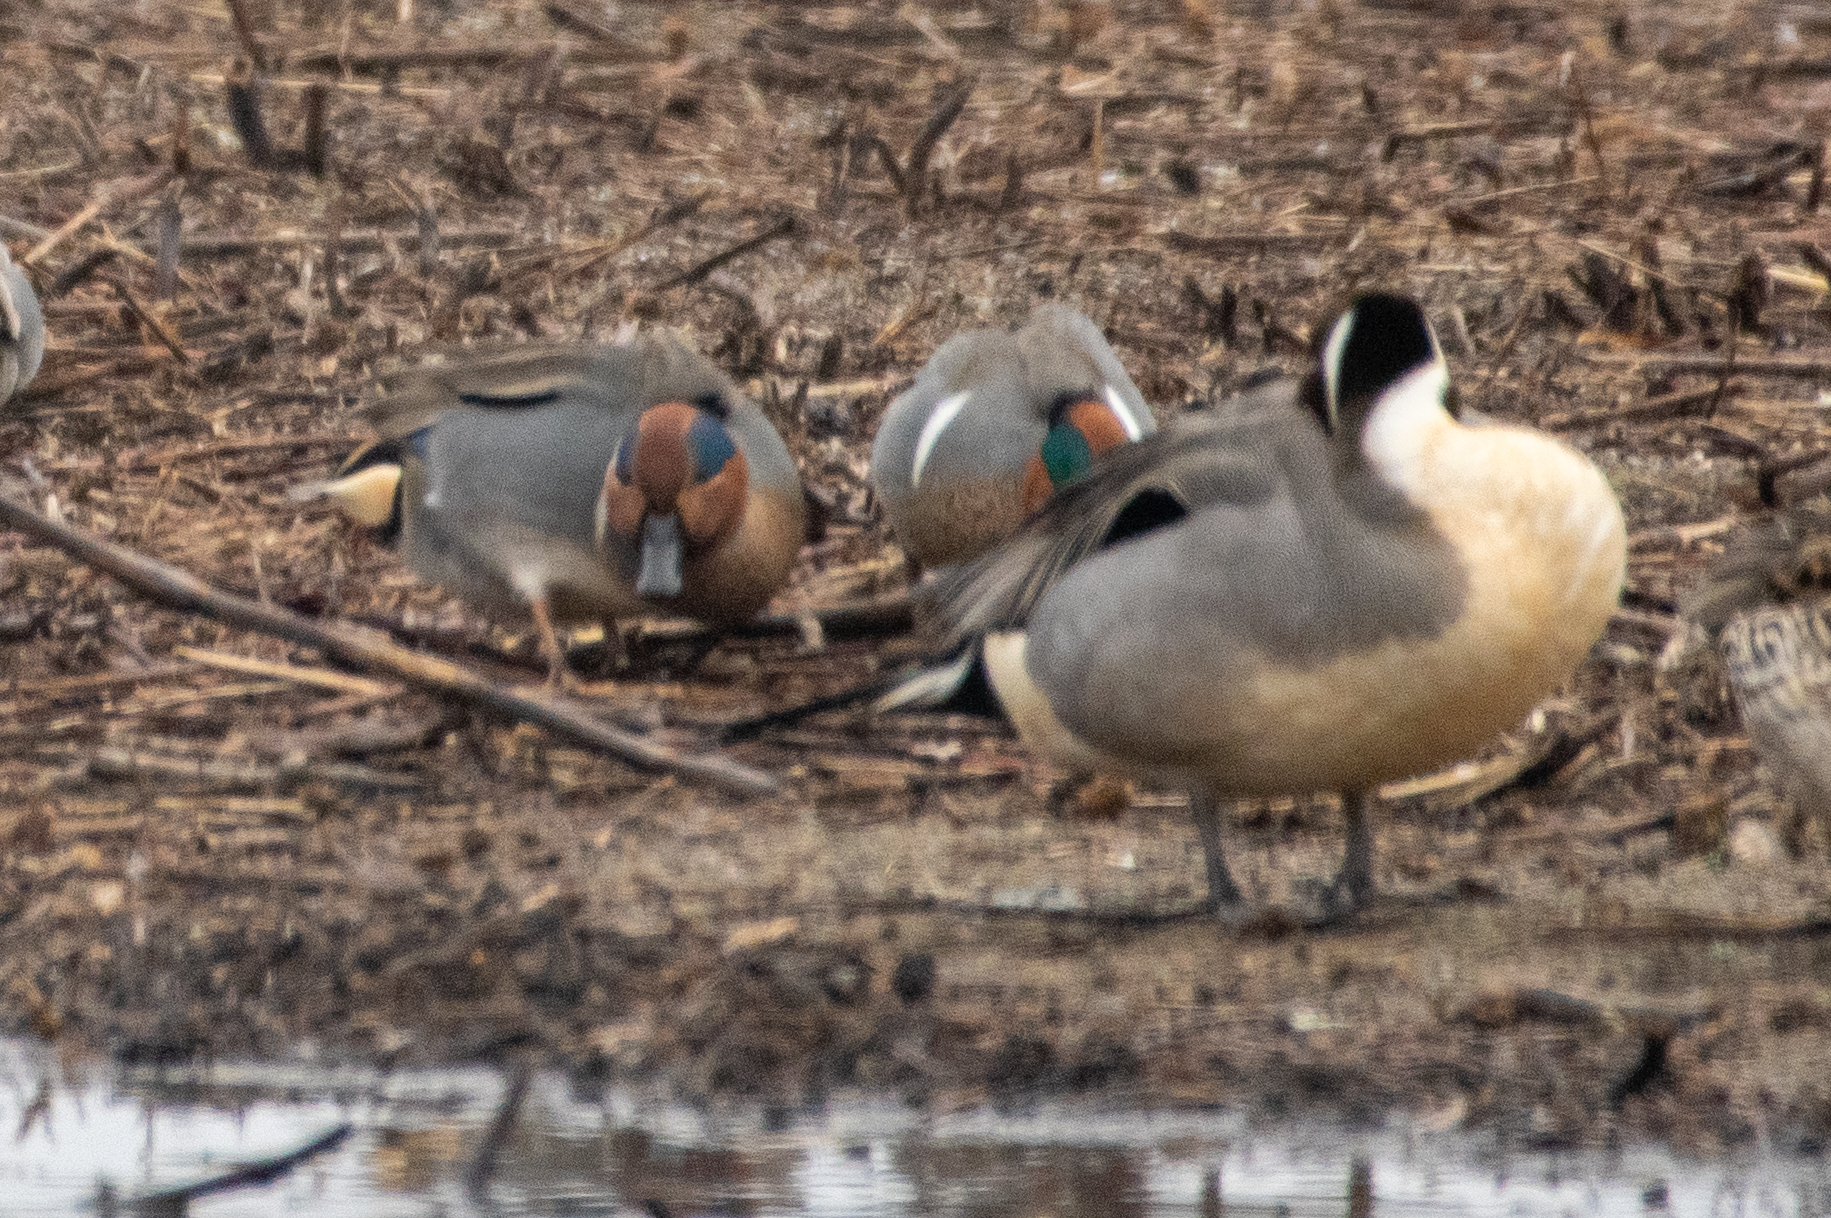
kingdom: Animalia
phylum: Chordata
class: Aves
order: Anseriformes
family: Anatidae
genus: Anas
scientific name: Anas crecca
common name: Eurasian teal
